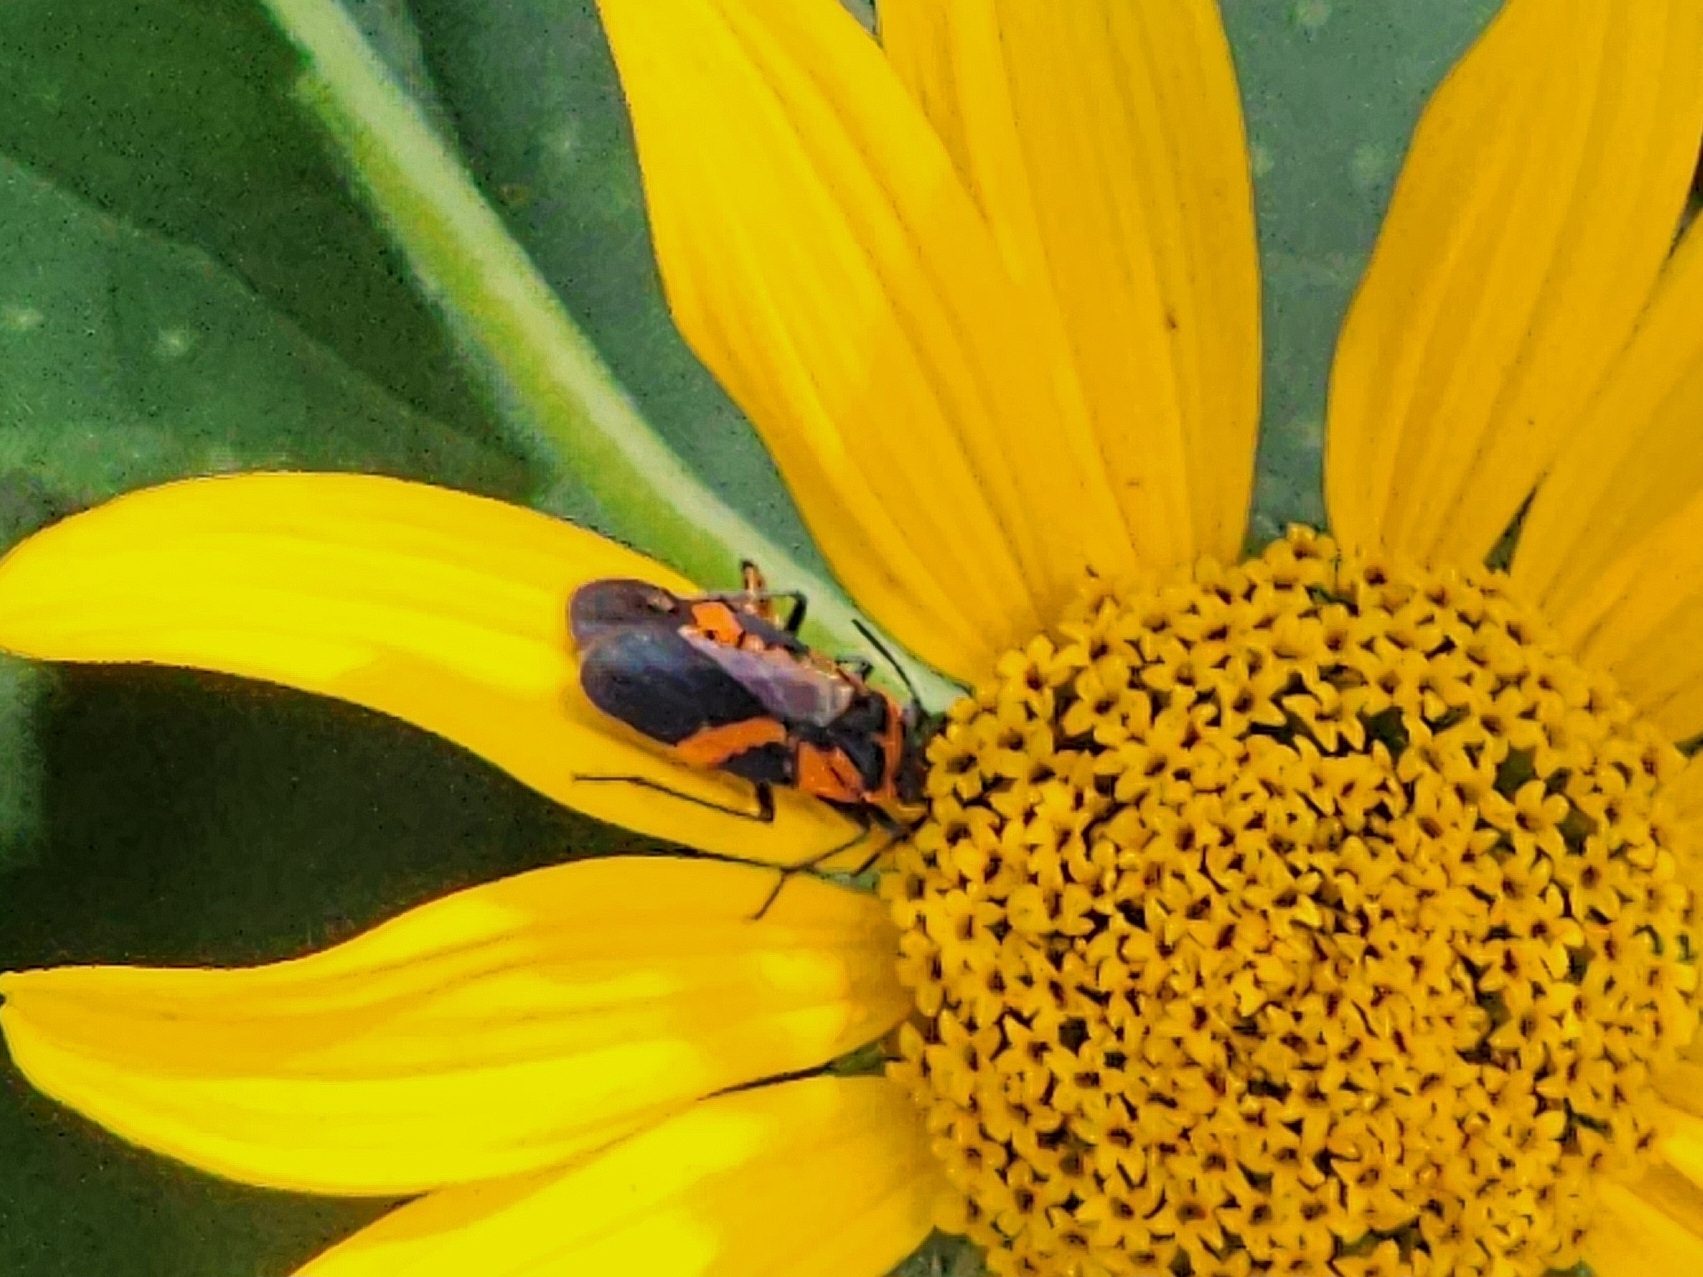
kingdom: Animalia
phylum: Arthropoda
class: Insecta
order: Hemiptera
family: Lygaeidae
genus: Lygaeus
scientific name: Lygaeus turcicus
